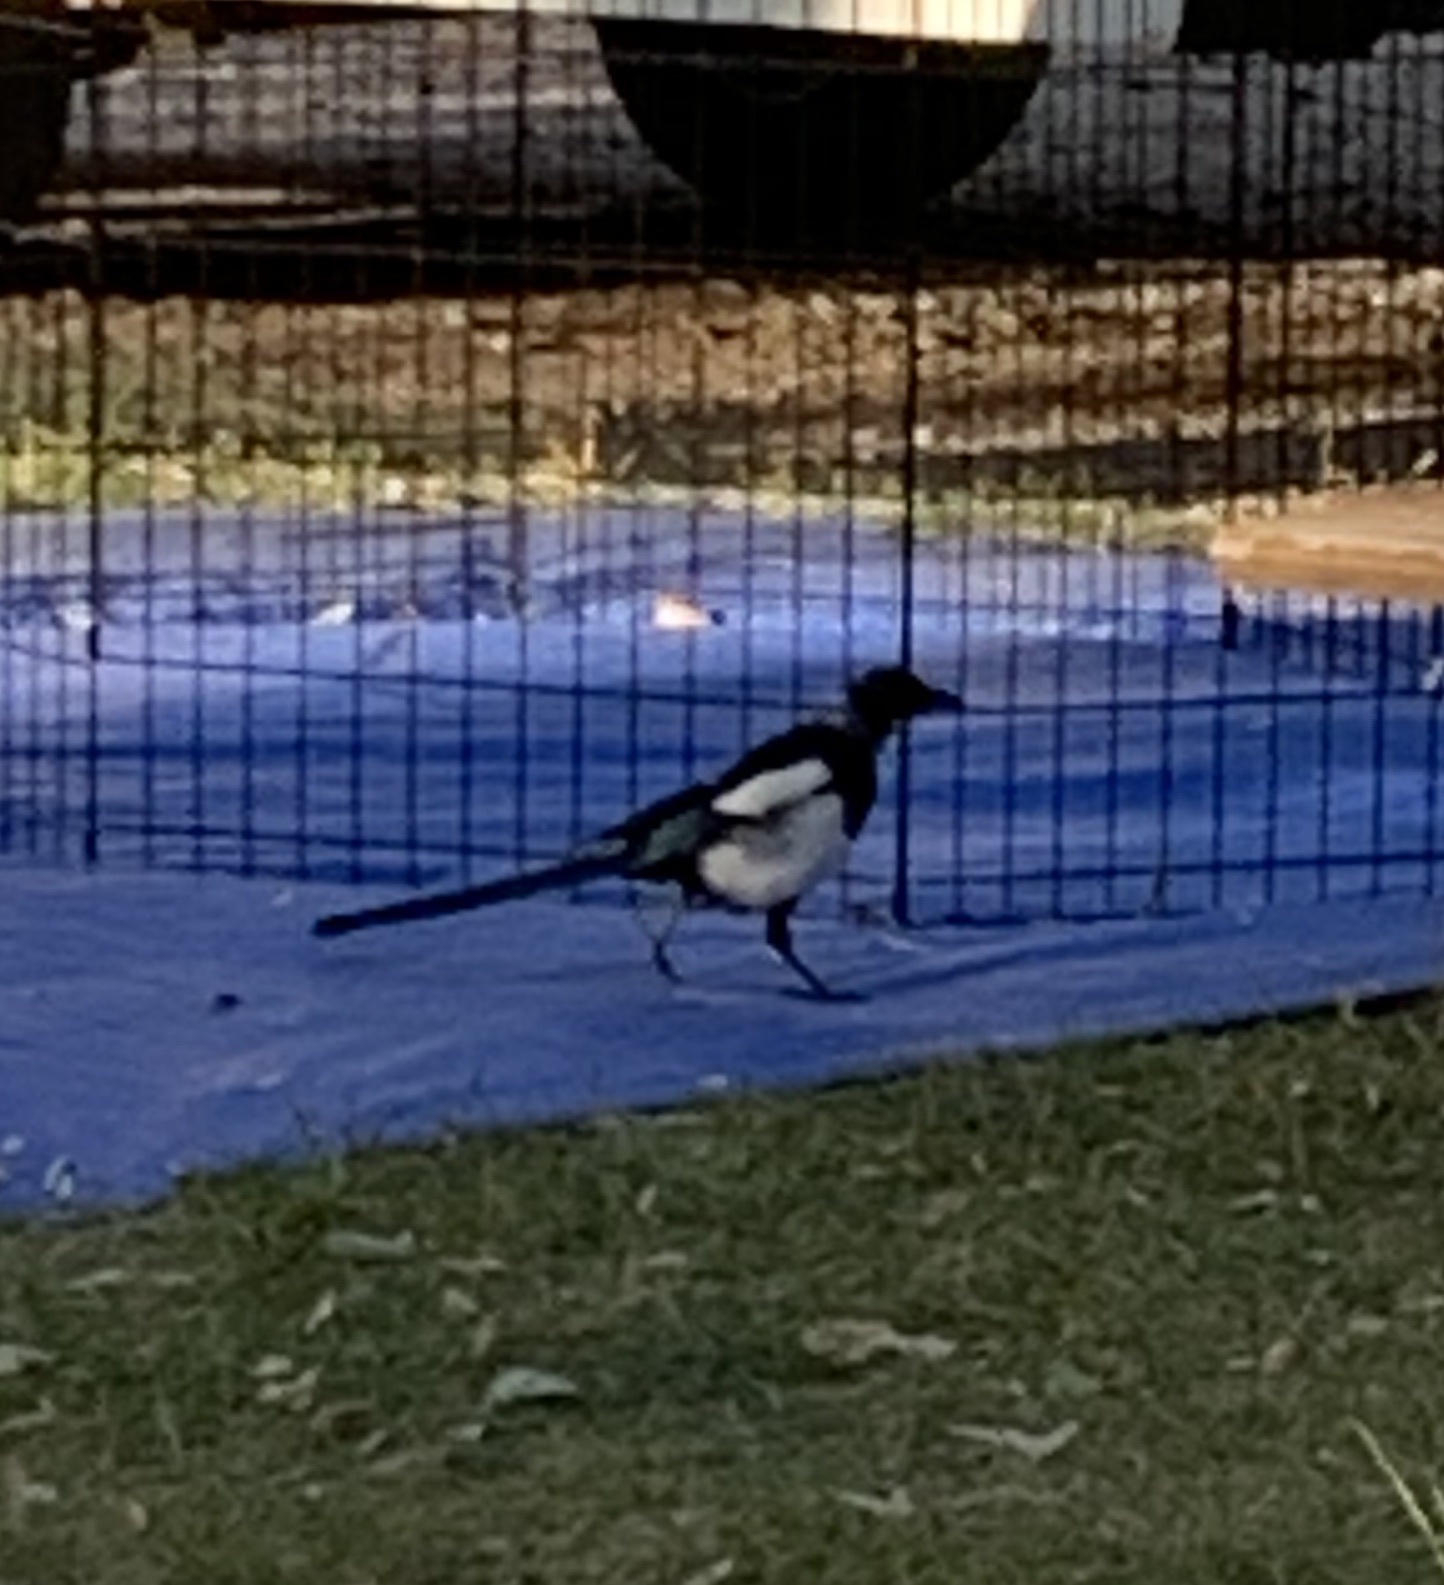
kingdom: Animalia
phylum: Chordata
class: Aves
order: Passeriformes
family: Corvidae
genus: Pica
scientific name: Pica hudsonia
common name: Black-billed magpie
